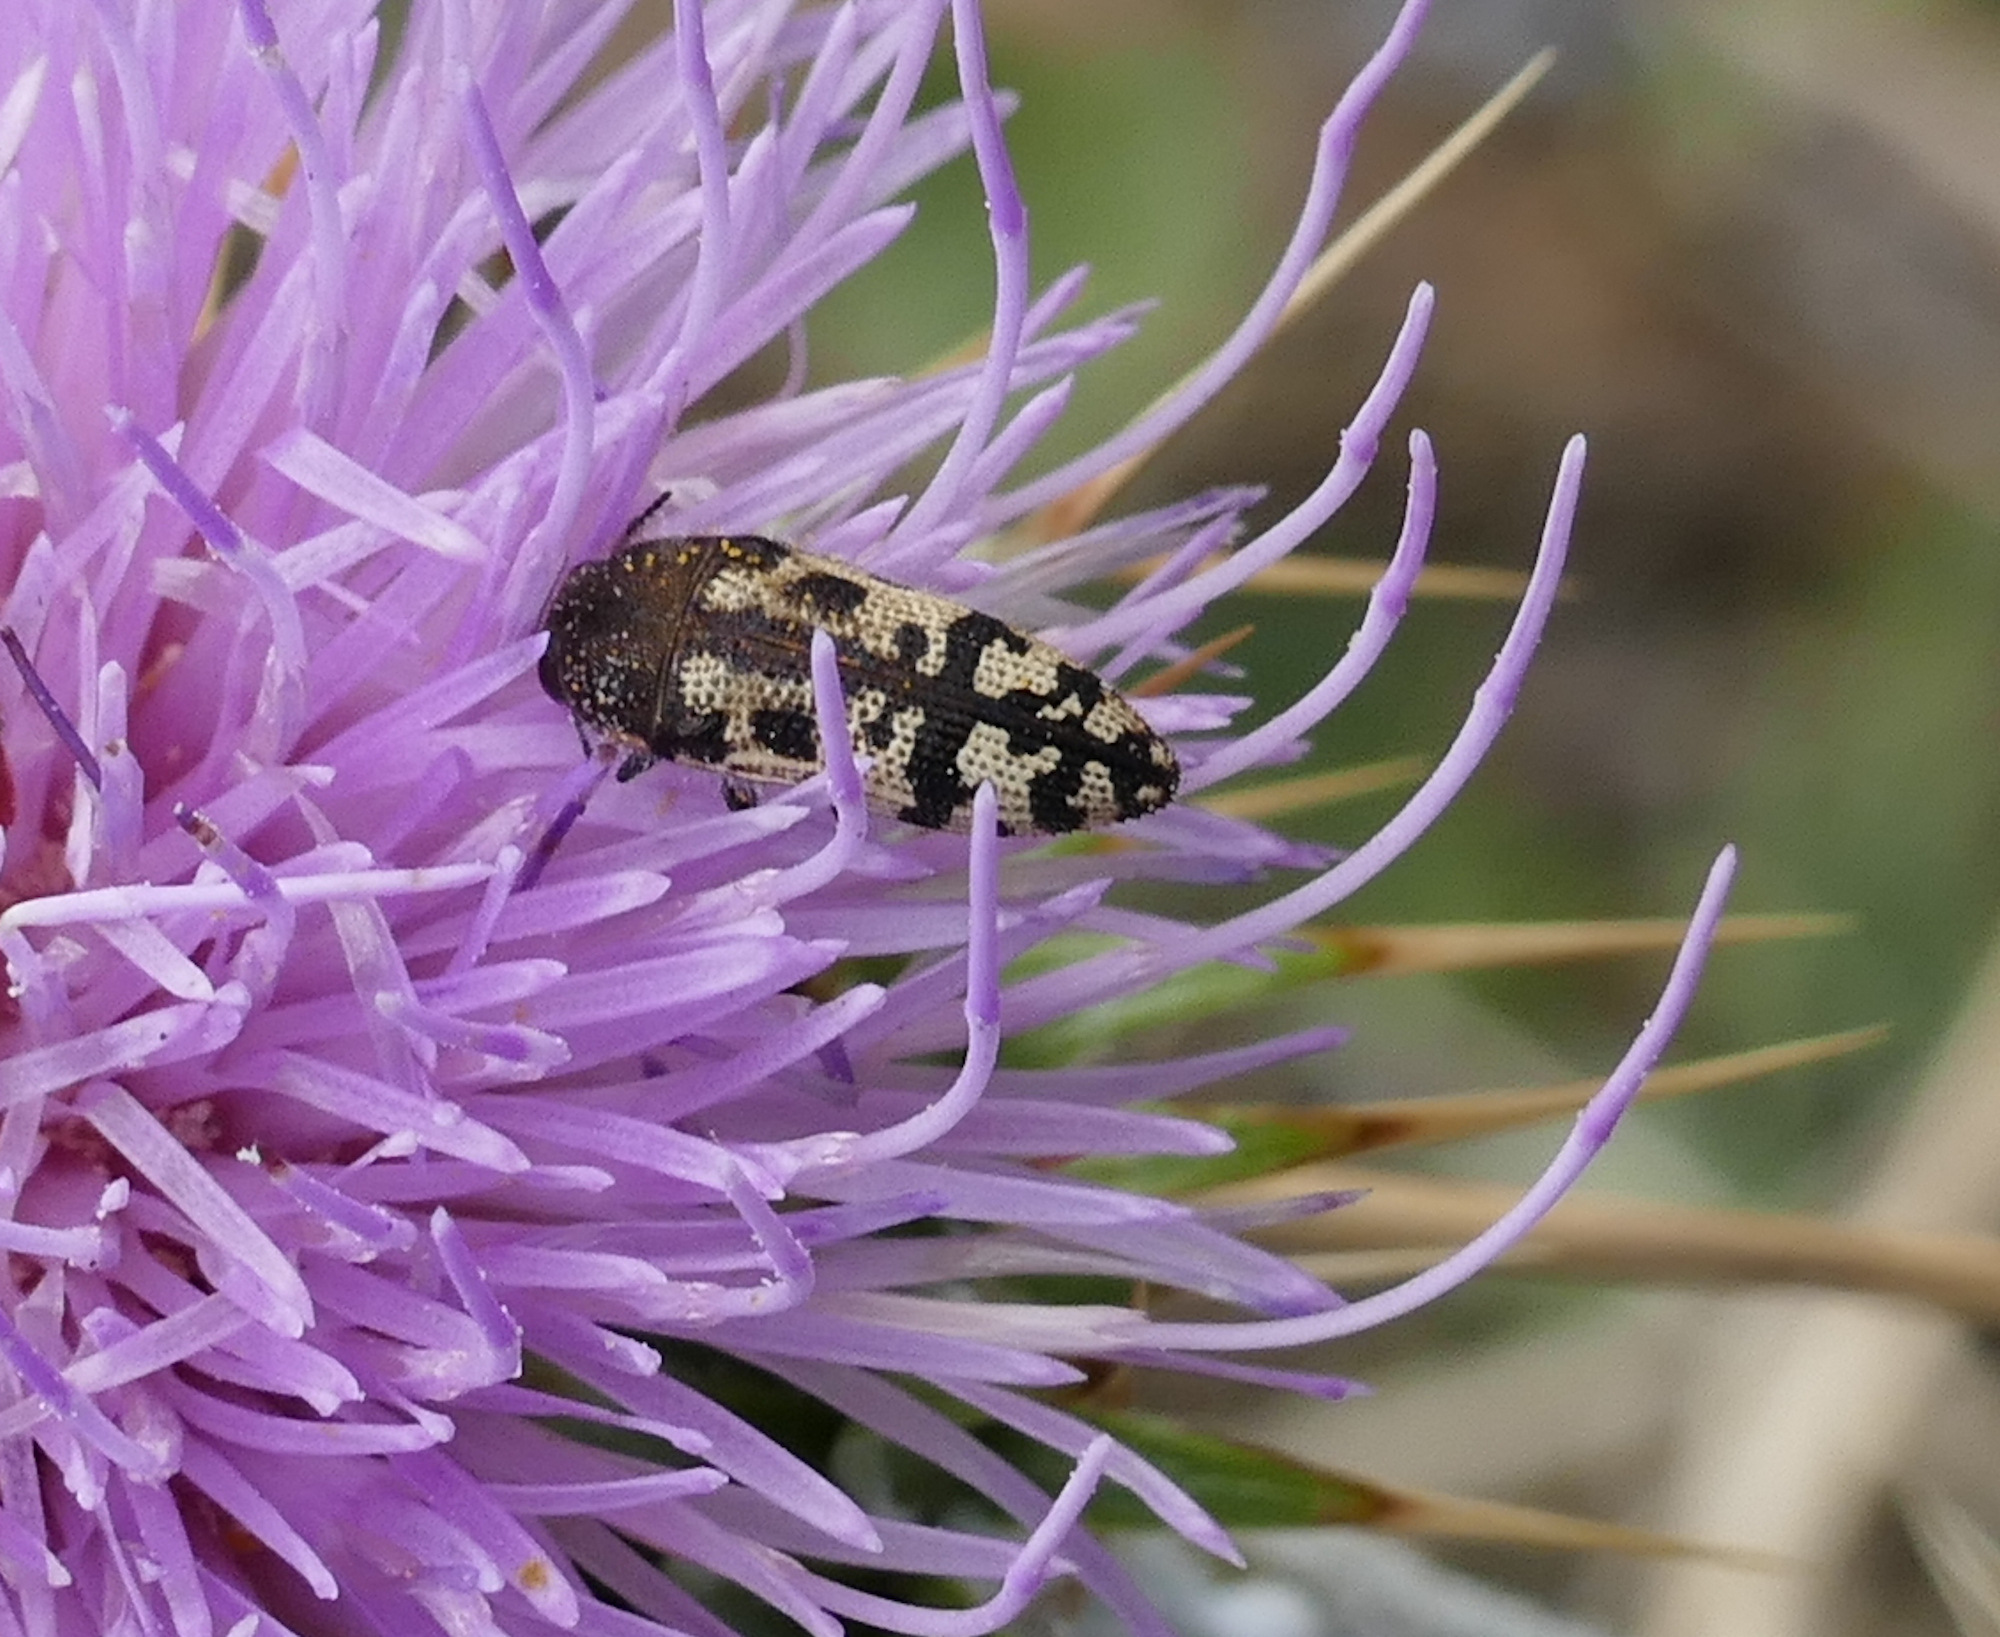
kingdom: Animalia
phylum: Arthropoda
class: Insecta
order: Coleoptera
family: Buprestidae
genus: Acmaeodera
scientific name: Acmaeodera mixta
